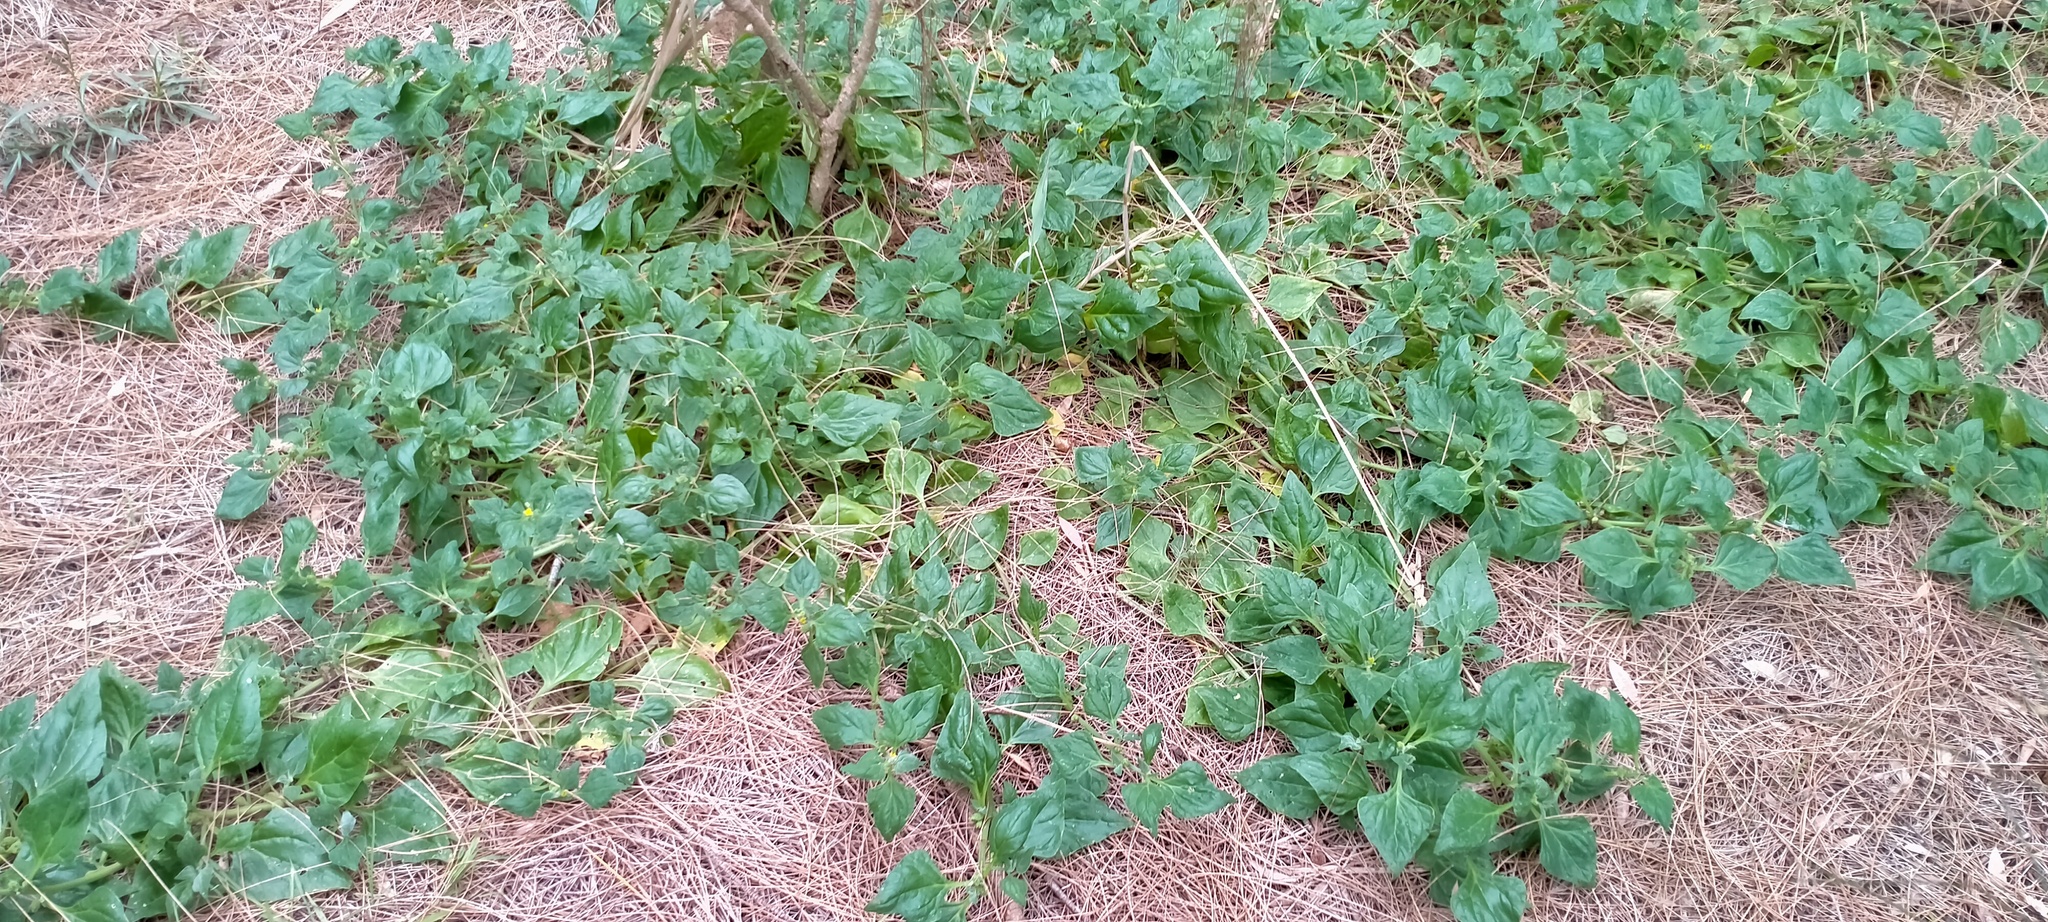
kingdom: Plantae
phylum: Tracheophyta
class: Magnoliopsida
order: Caryophyllales
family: Aizoaceae
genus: Tetragonia
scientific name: Tetragonia tetragonoides
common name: New zealand-spinach
